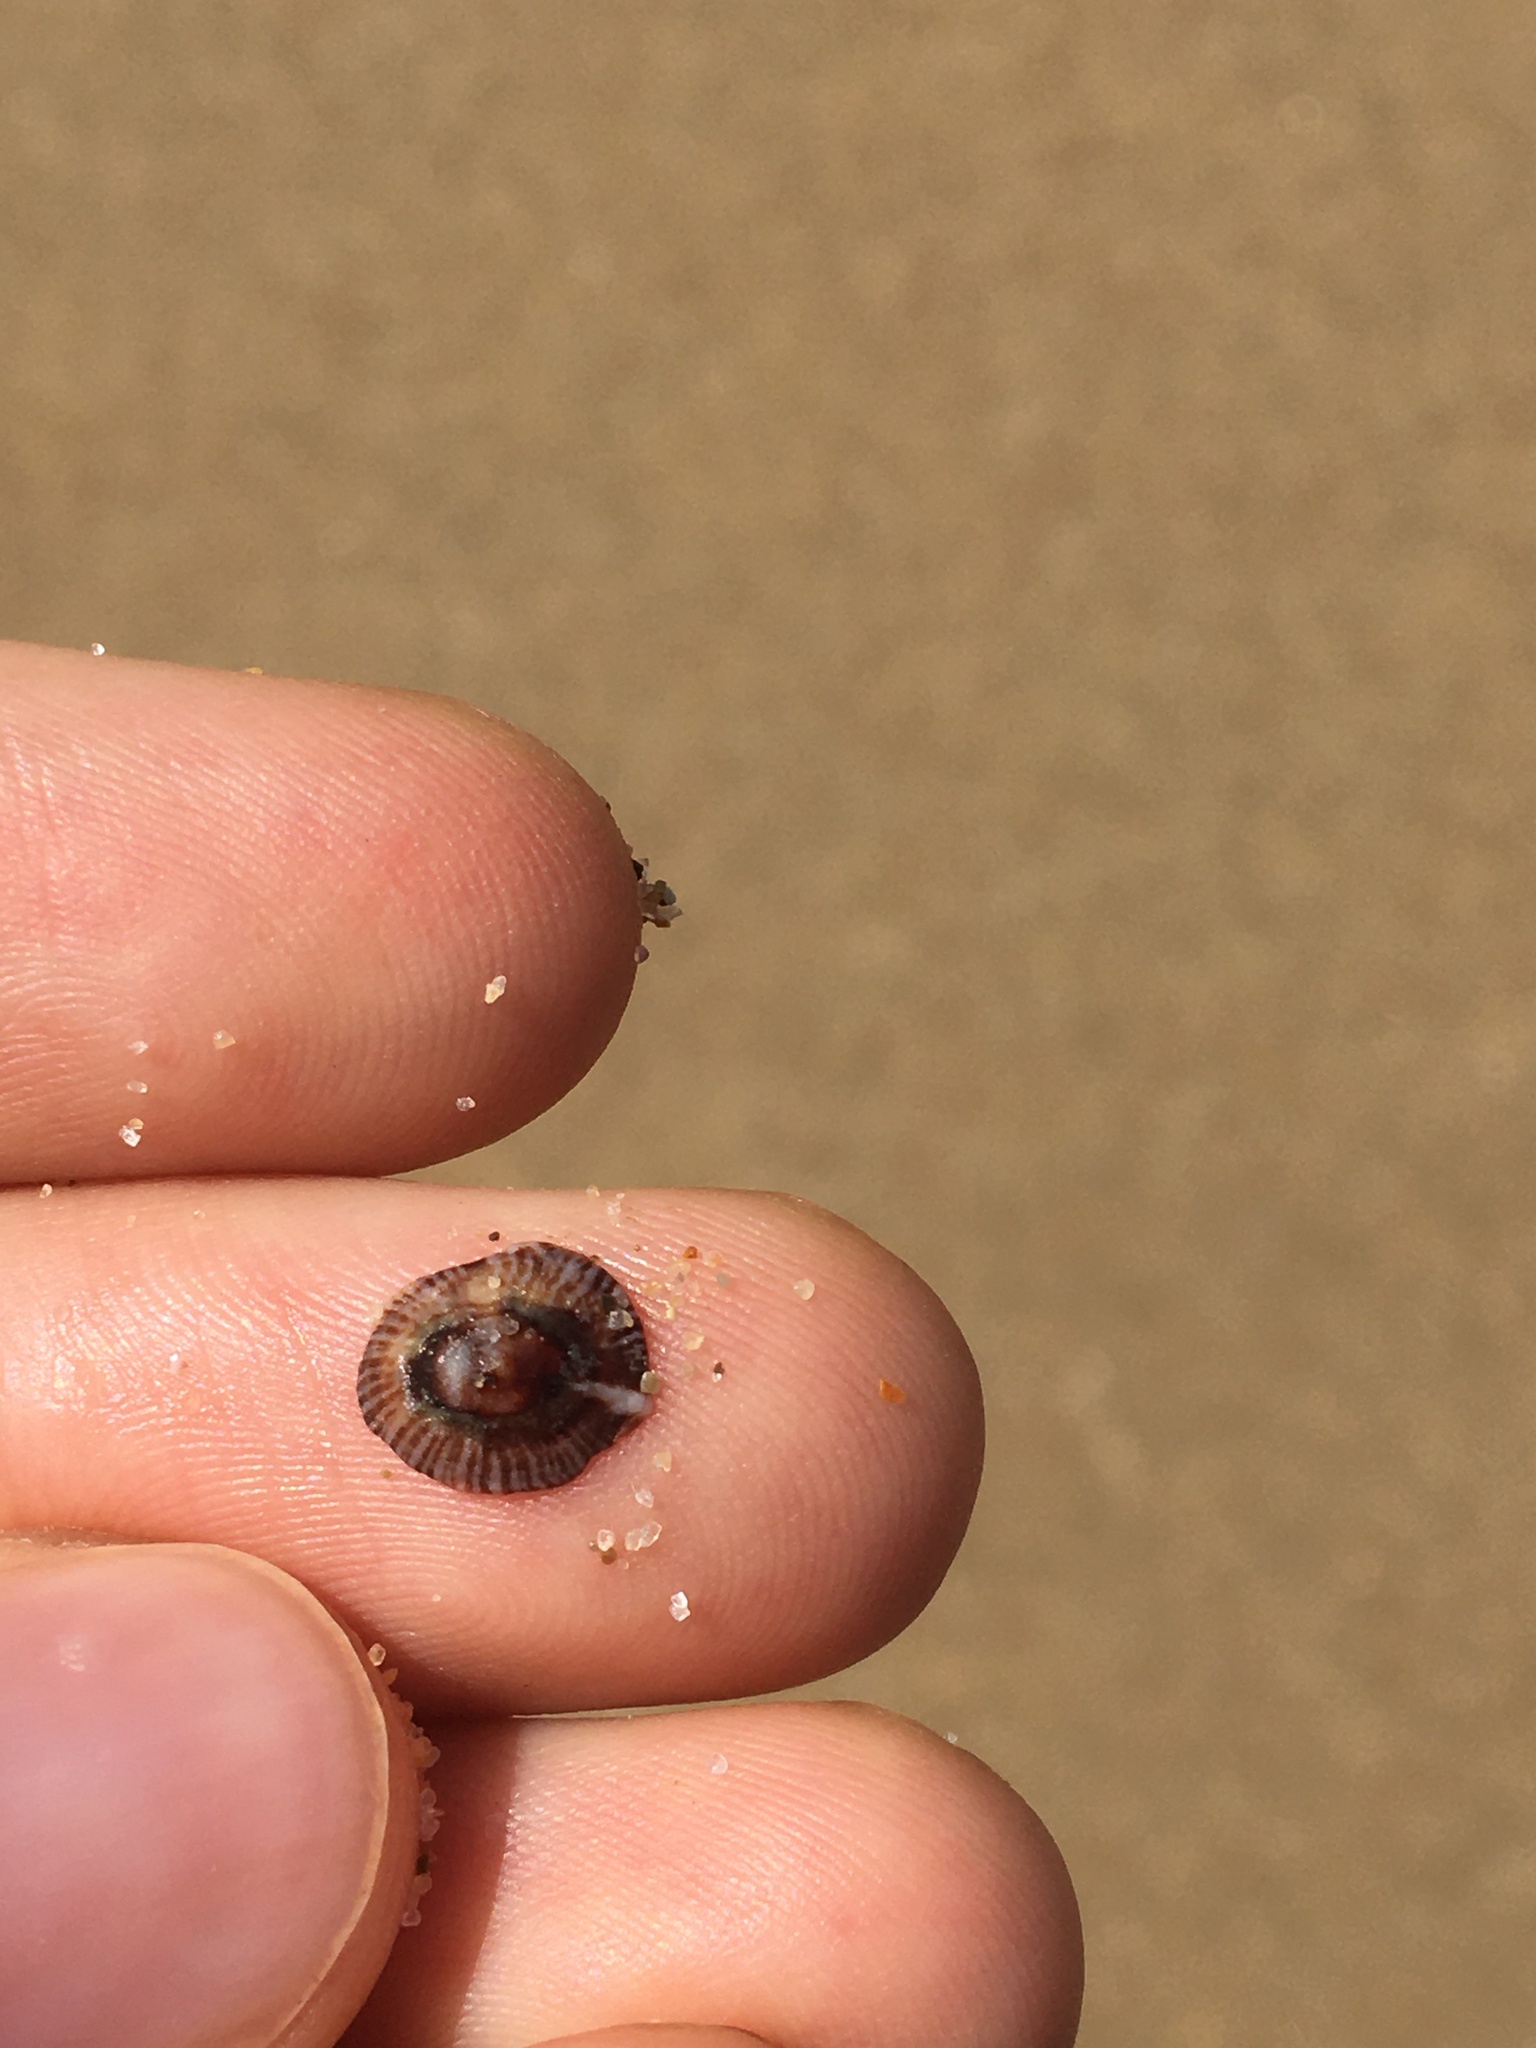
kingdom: Animalia
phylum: Mollusca
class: Gastropoda
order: Siphonariida
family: Siphonariidae
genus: Siphonaria
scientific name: Siphonaria funiculata
